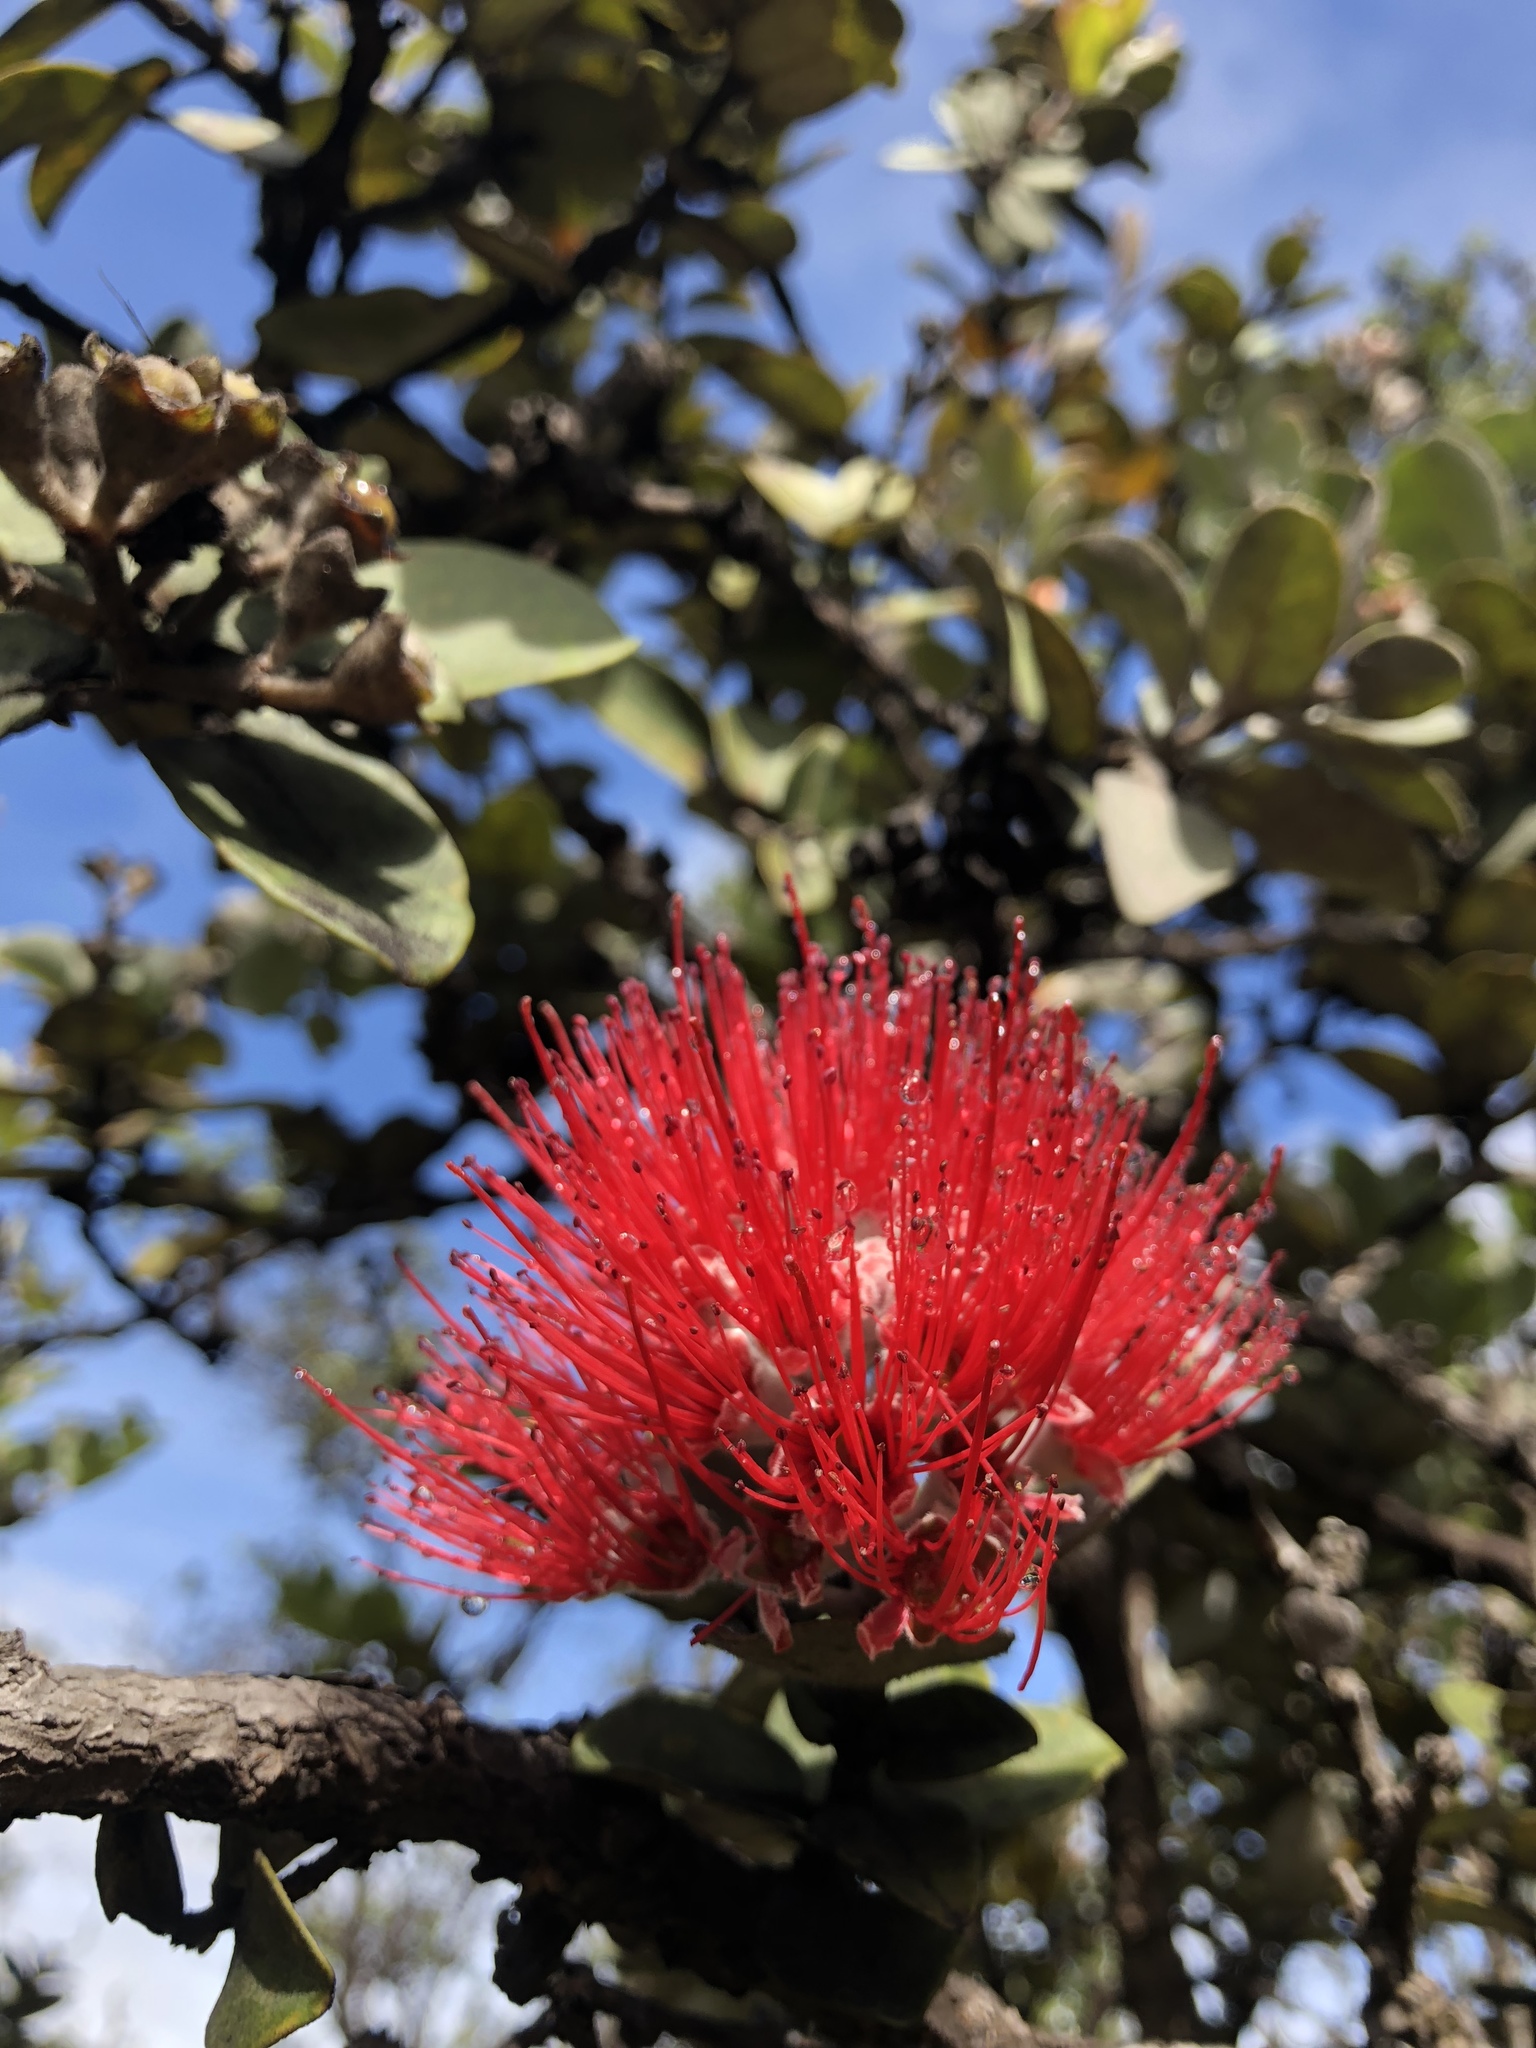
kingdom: Plantae
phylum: Tracheophyta
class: Magnoliopsida
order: Myrtales
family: Myrtaceae
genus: Metrosideros
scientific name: Metrosideros polymorpha
